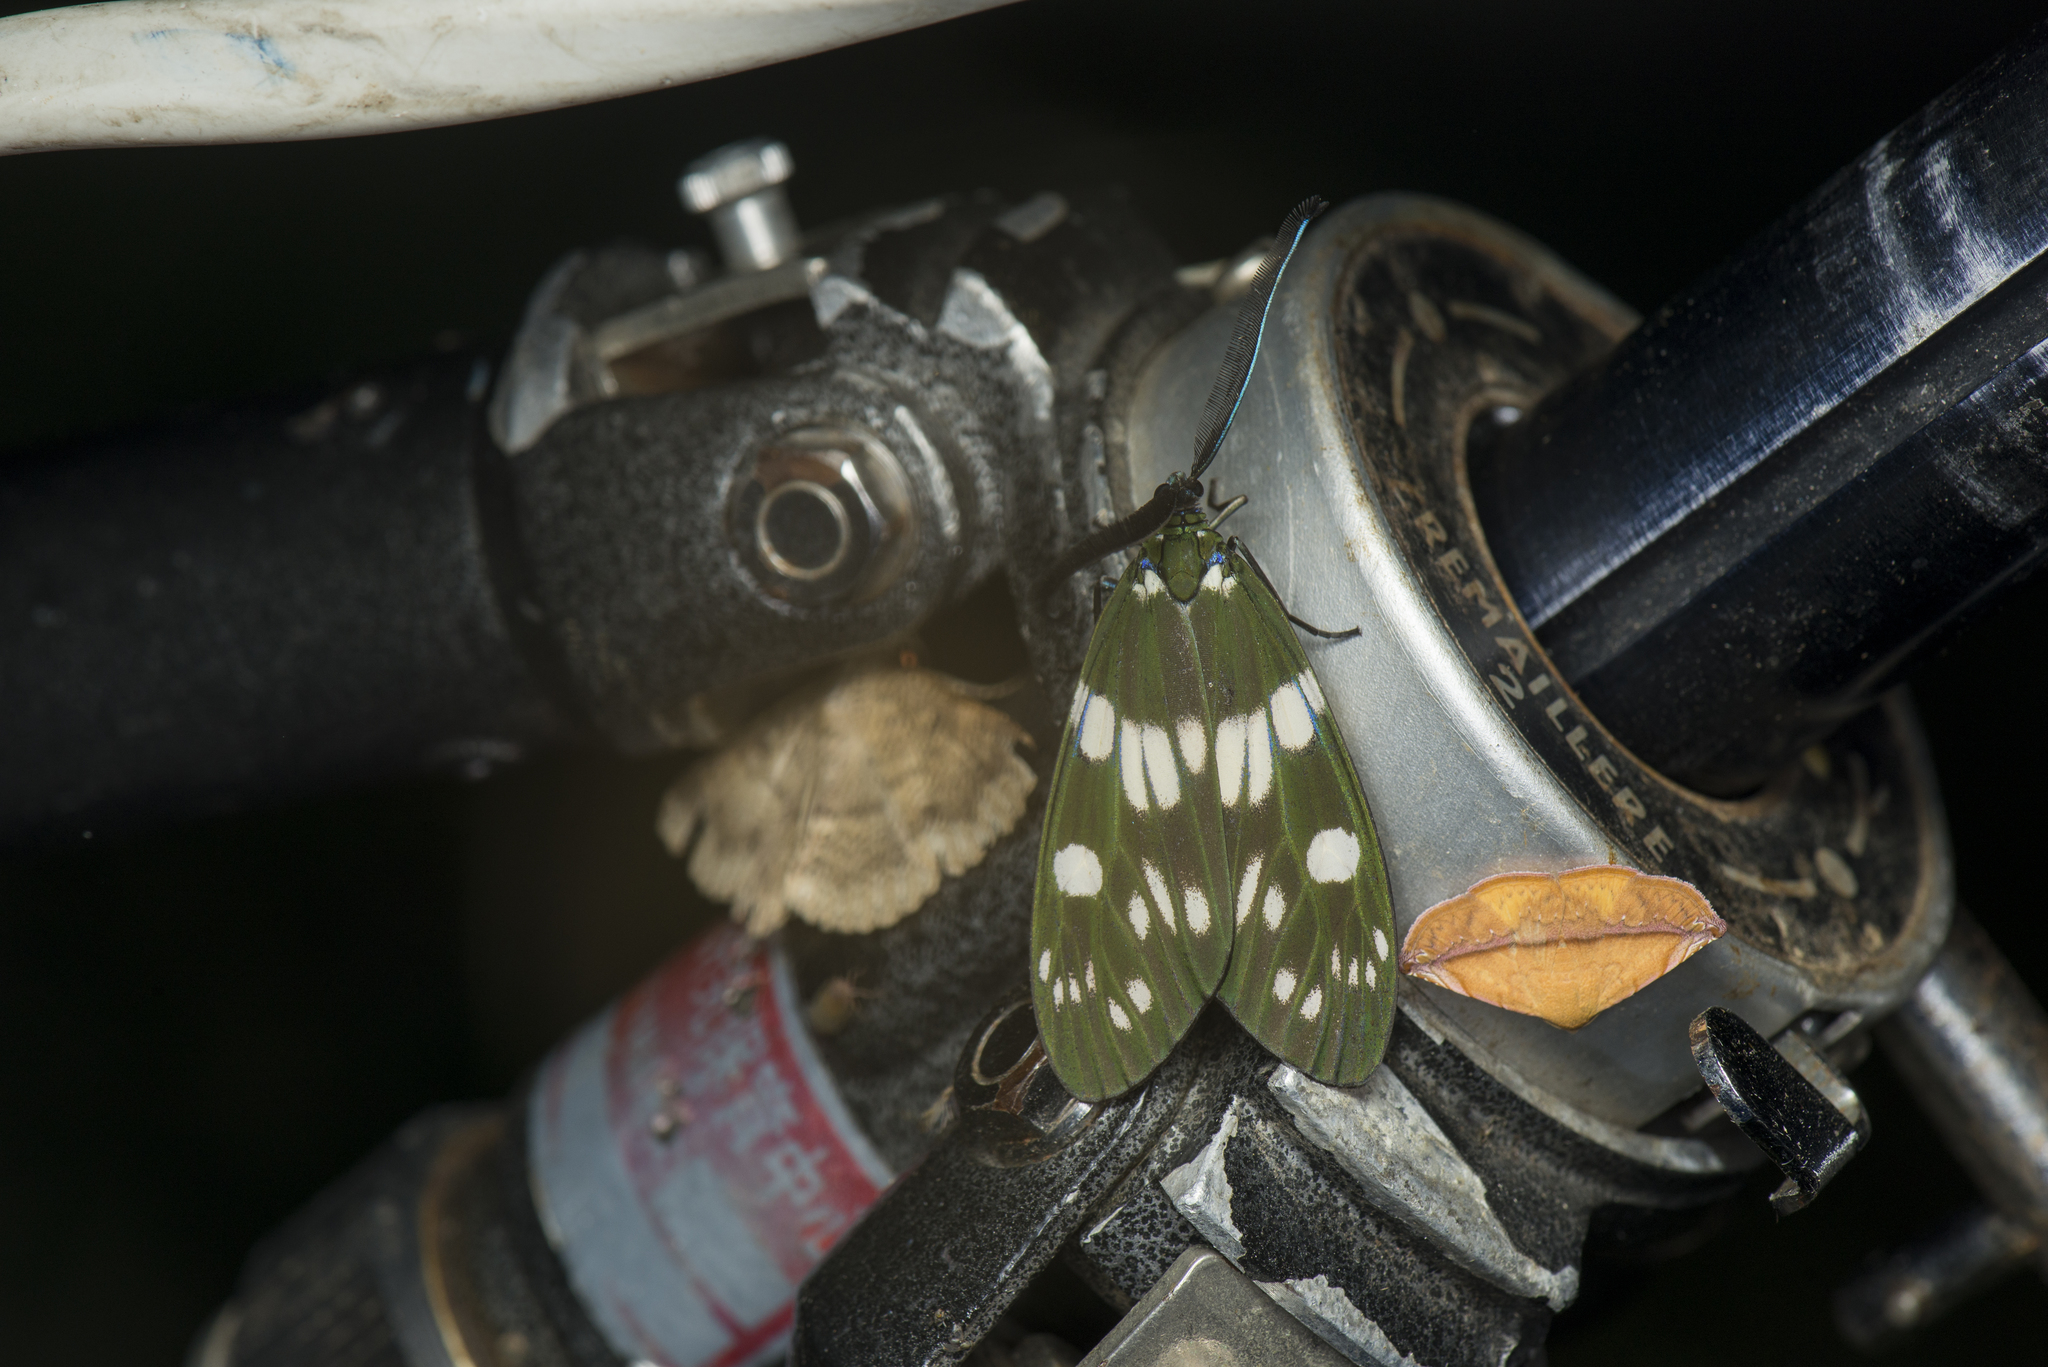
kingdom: Animalia
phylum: Arthropoda
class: Insecta
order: Lepidoptera
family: Zygaenidae
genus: Eterusia
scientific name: Eterusia aedea
